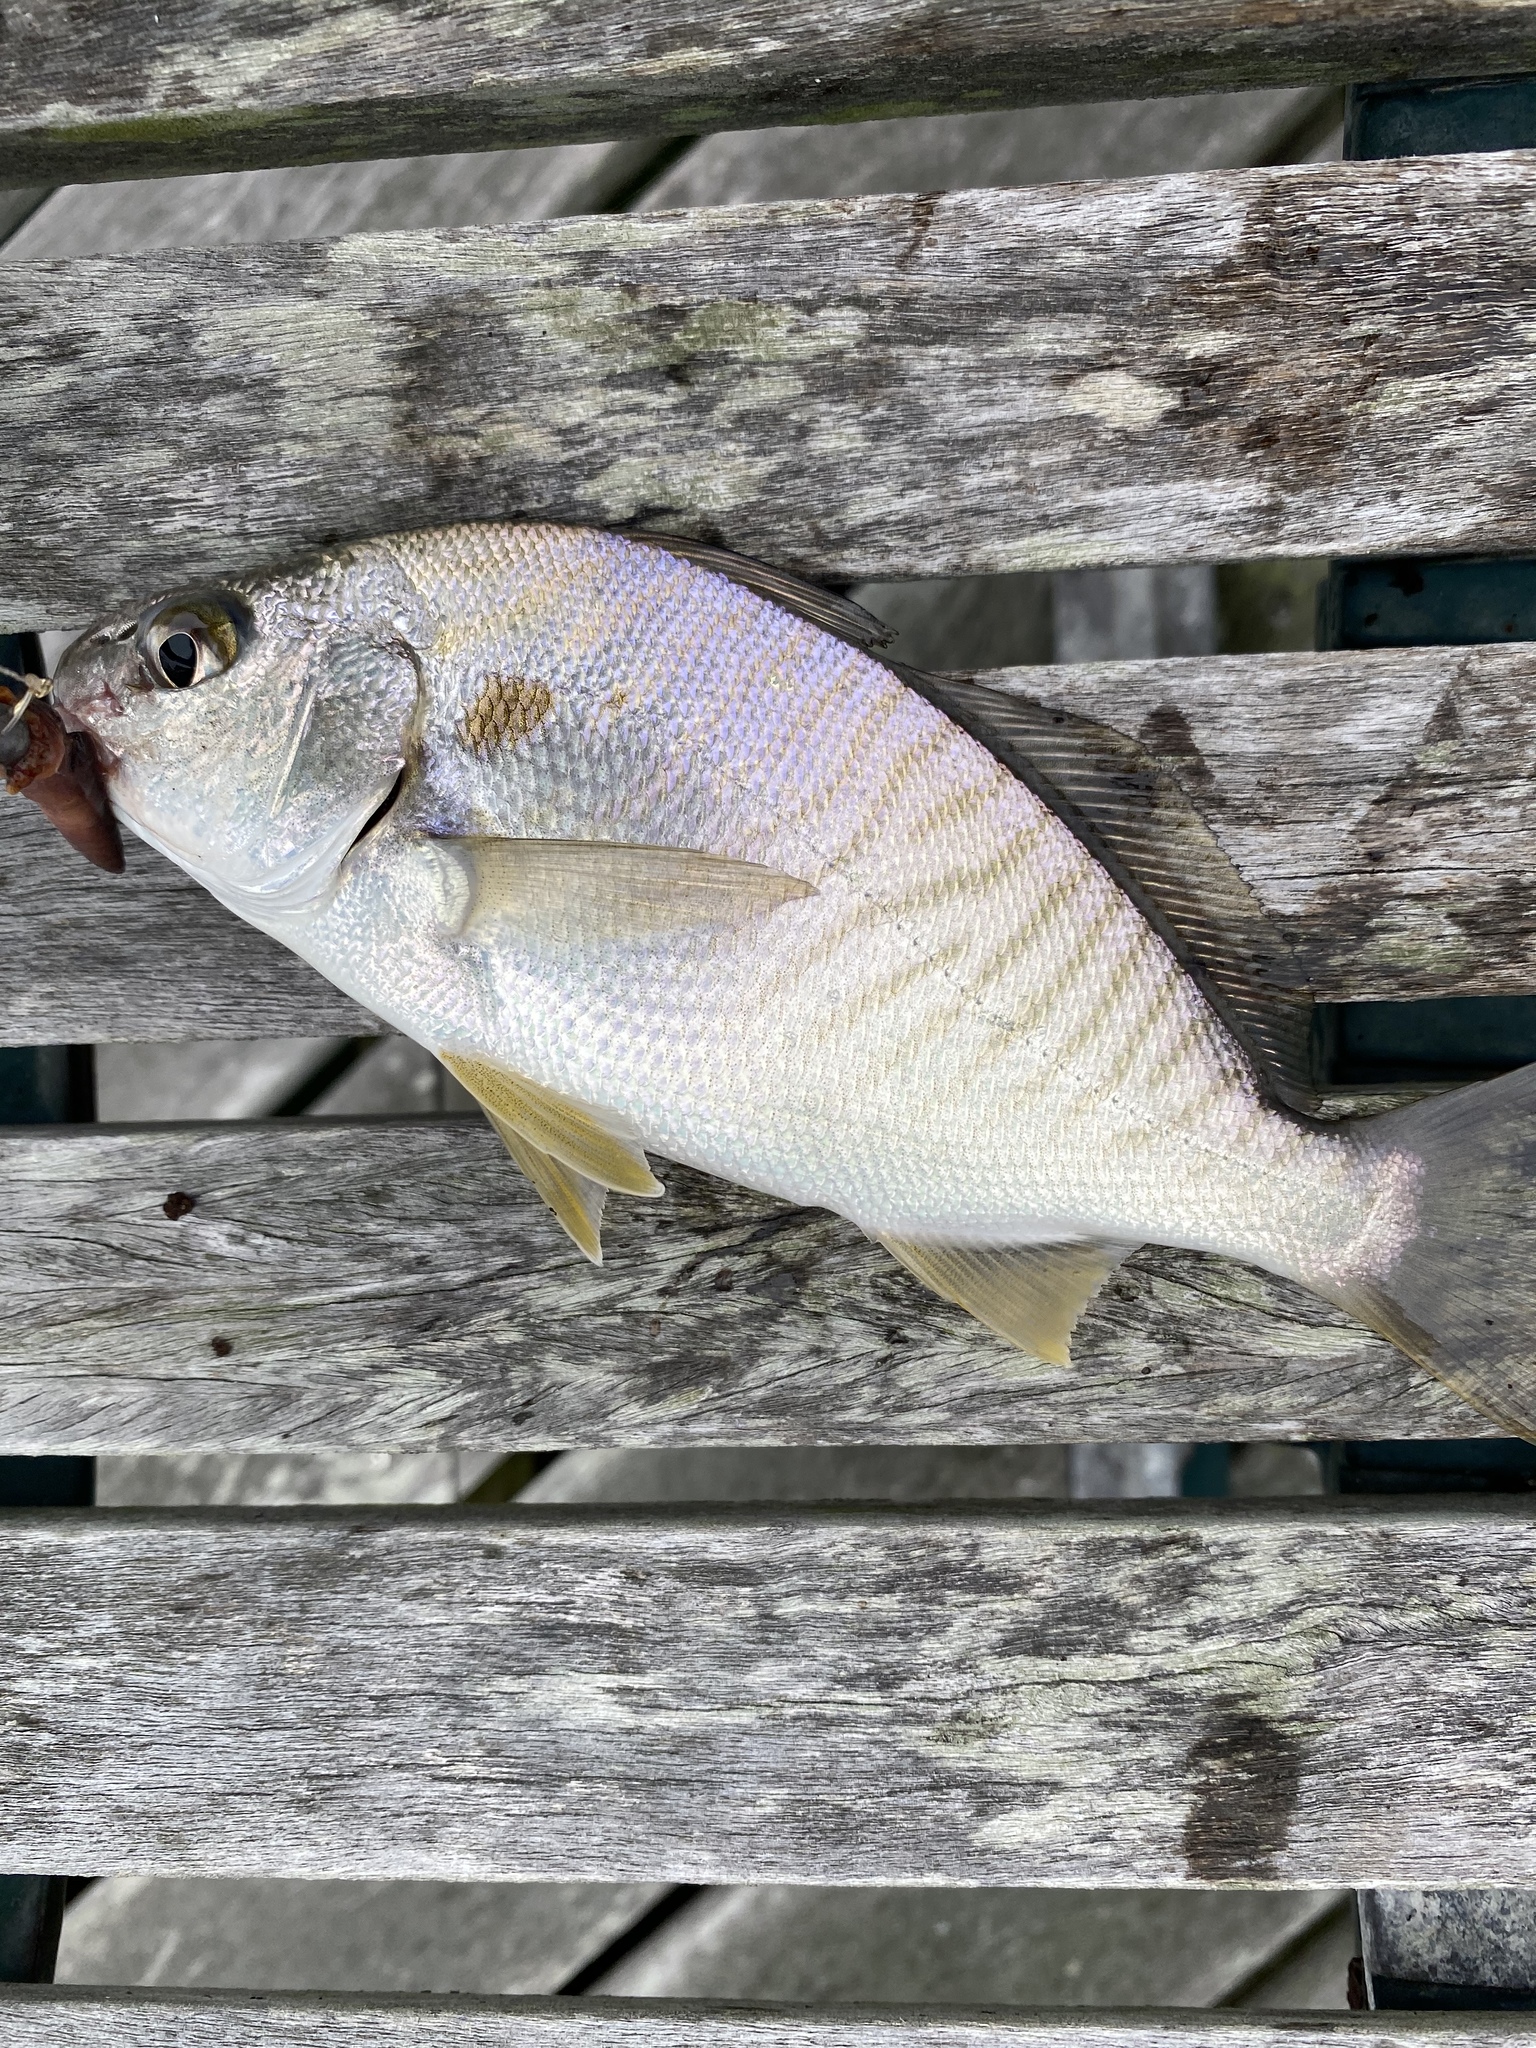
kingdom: Animalia
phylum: Chordata
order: Perciformes
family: Sciaenidae
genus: Leiostomus
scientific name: Leiostomus xanthurus
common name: Spot
